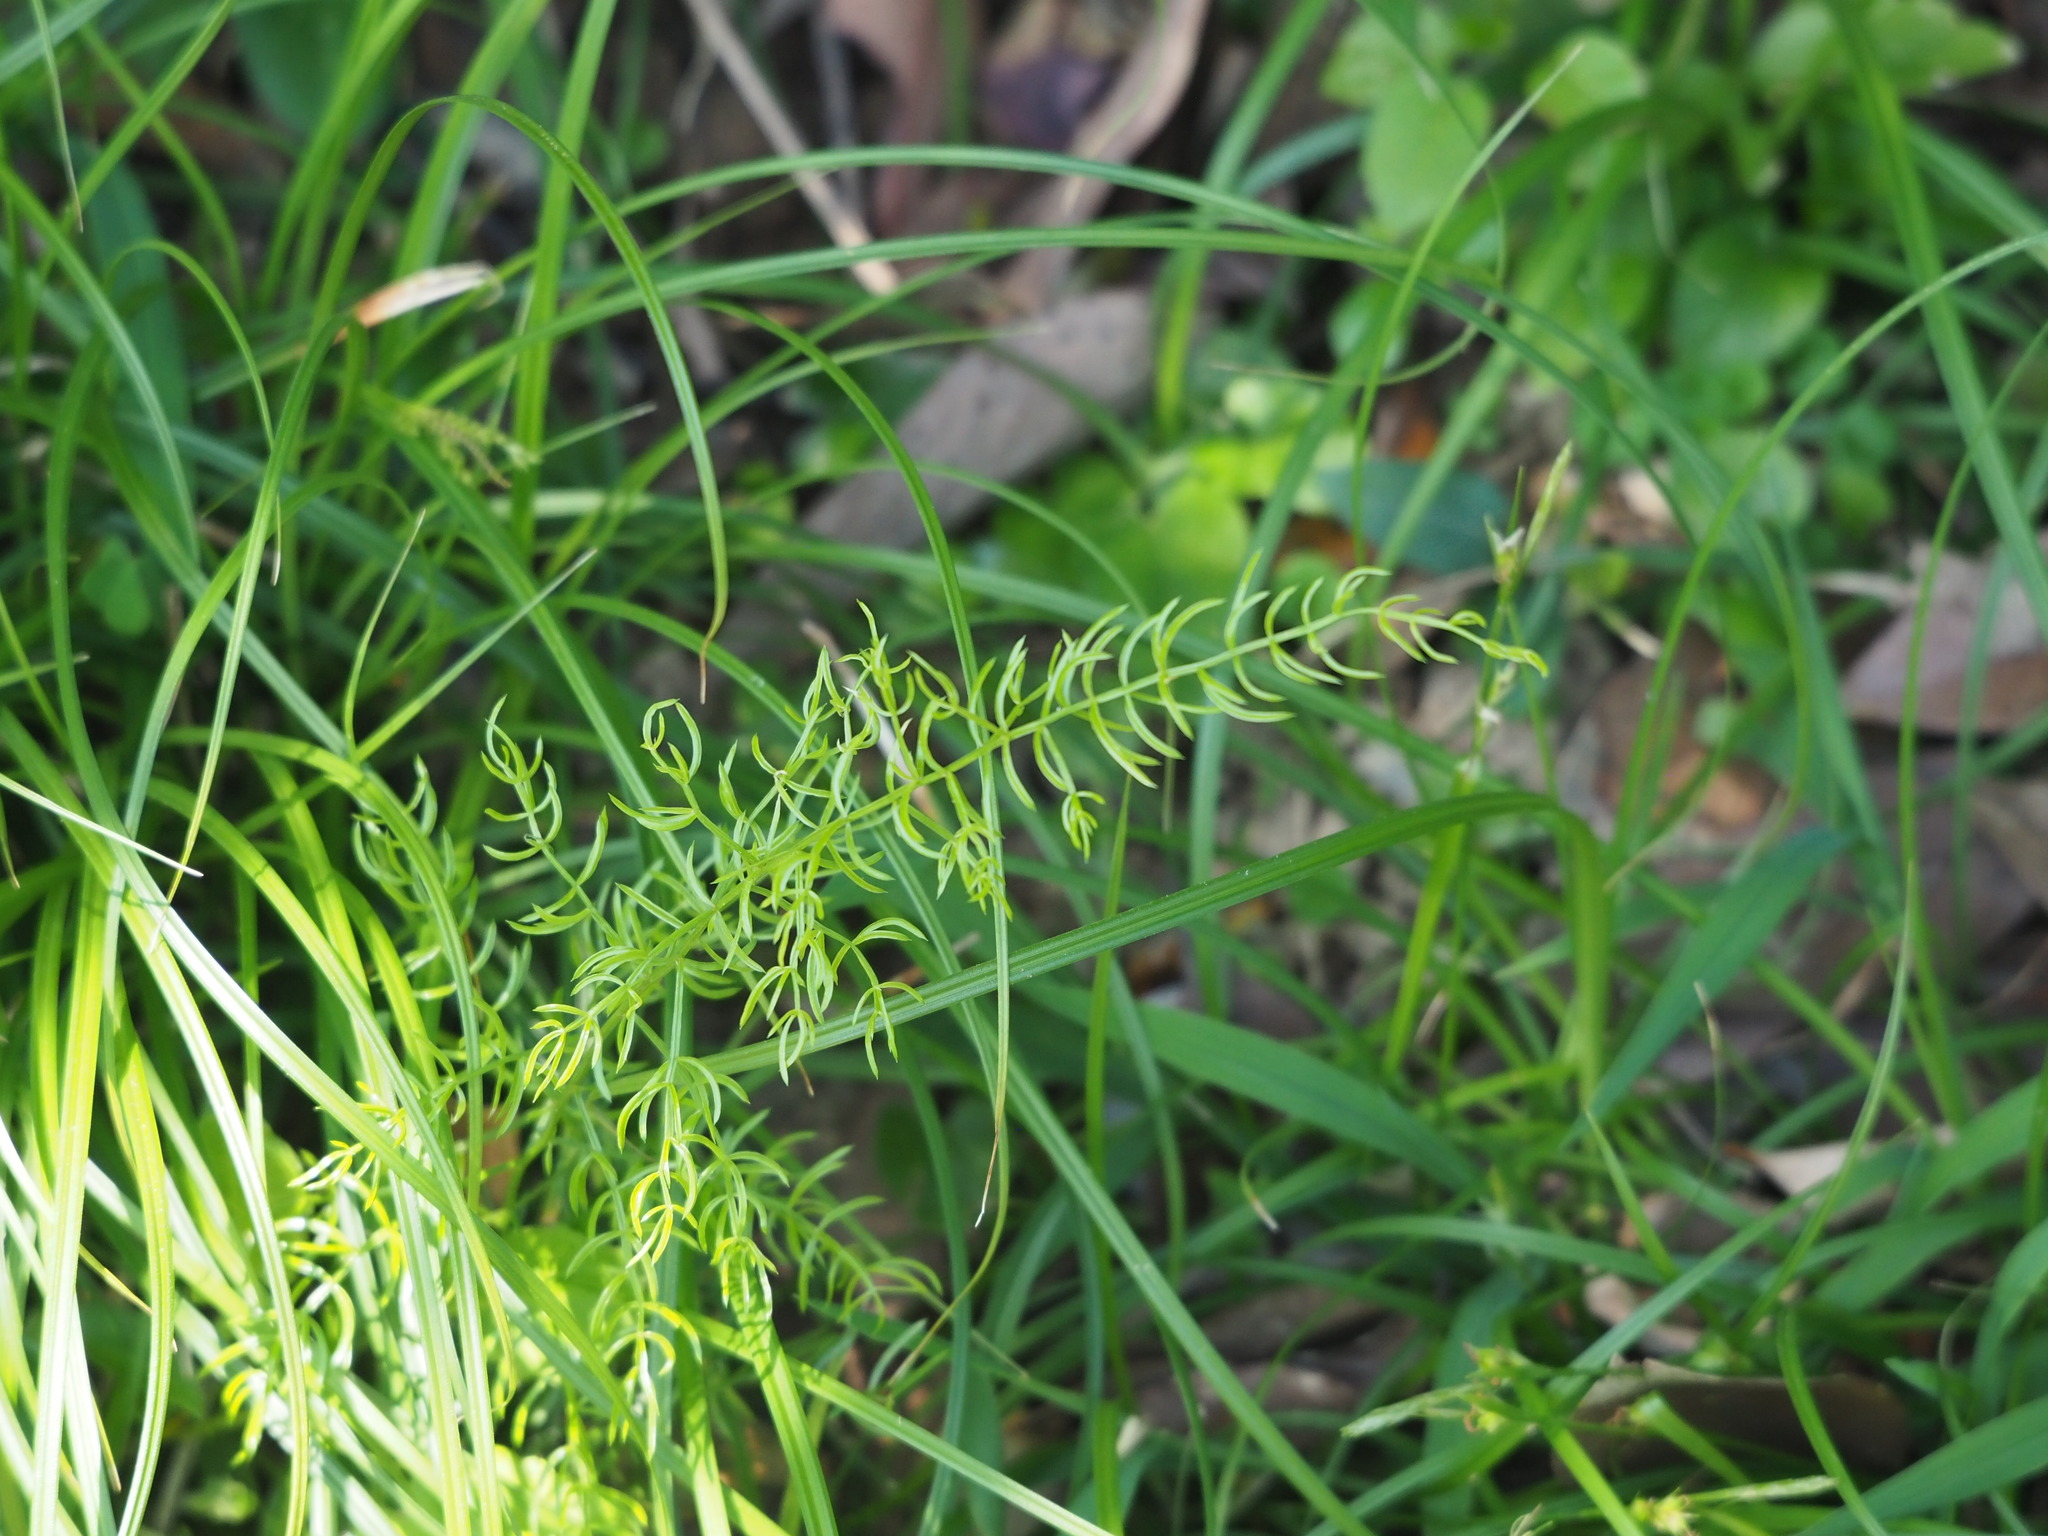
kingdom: Plantae
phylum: Tracheophyta
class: Liliopsida
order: Asparagales
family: Asparagaceae
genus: Asparagus
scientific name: Asparagus cochinchinensis
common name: Chinese asparagus
